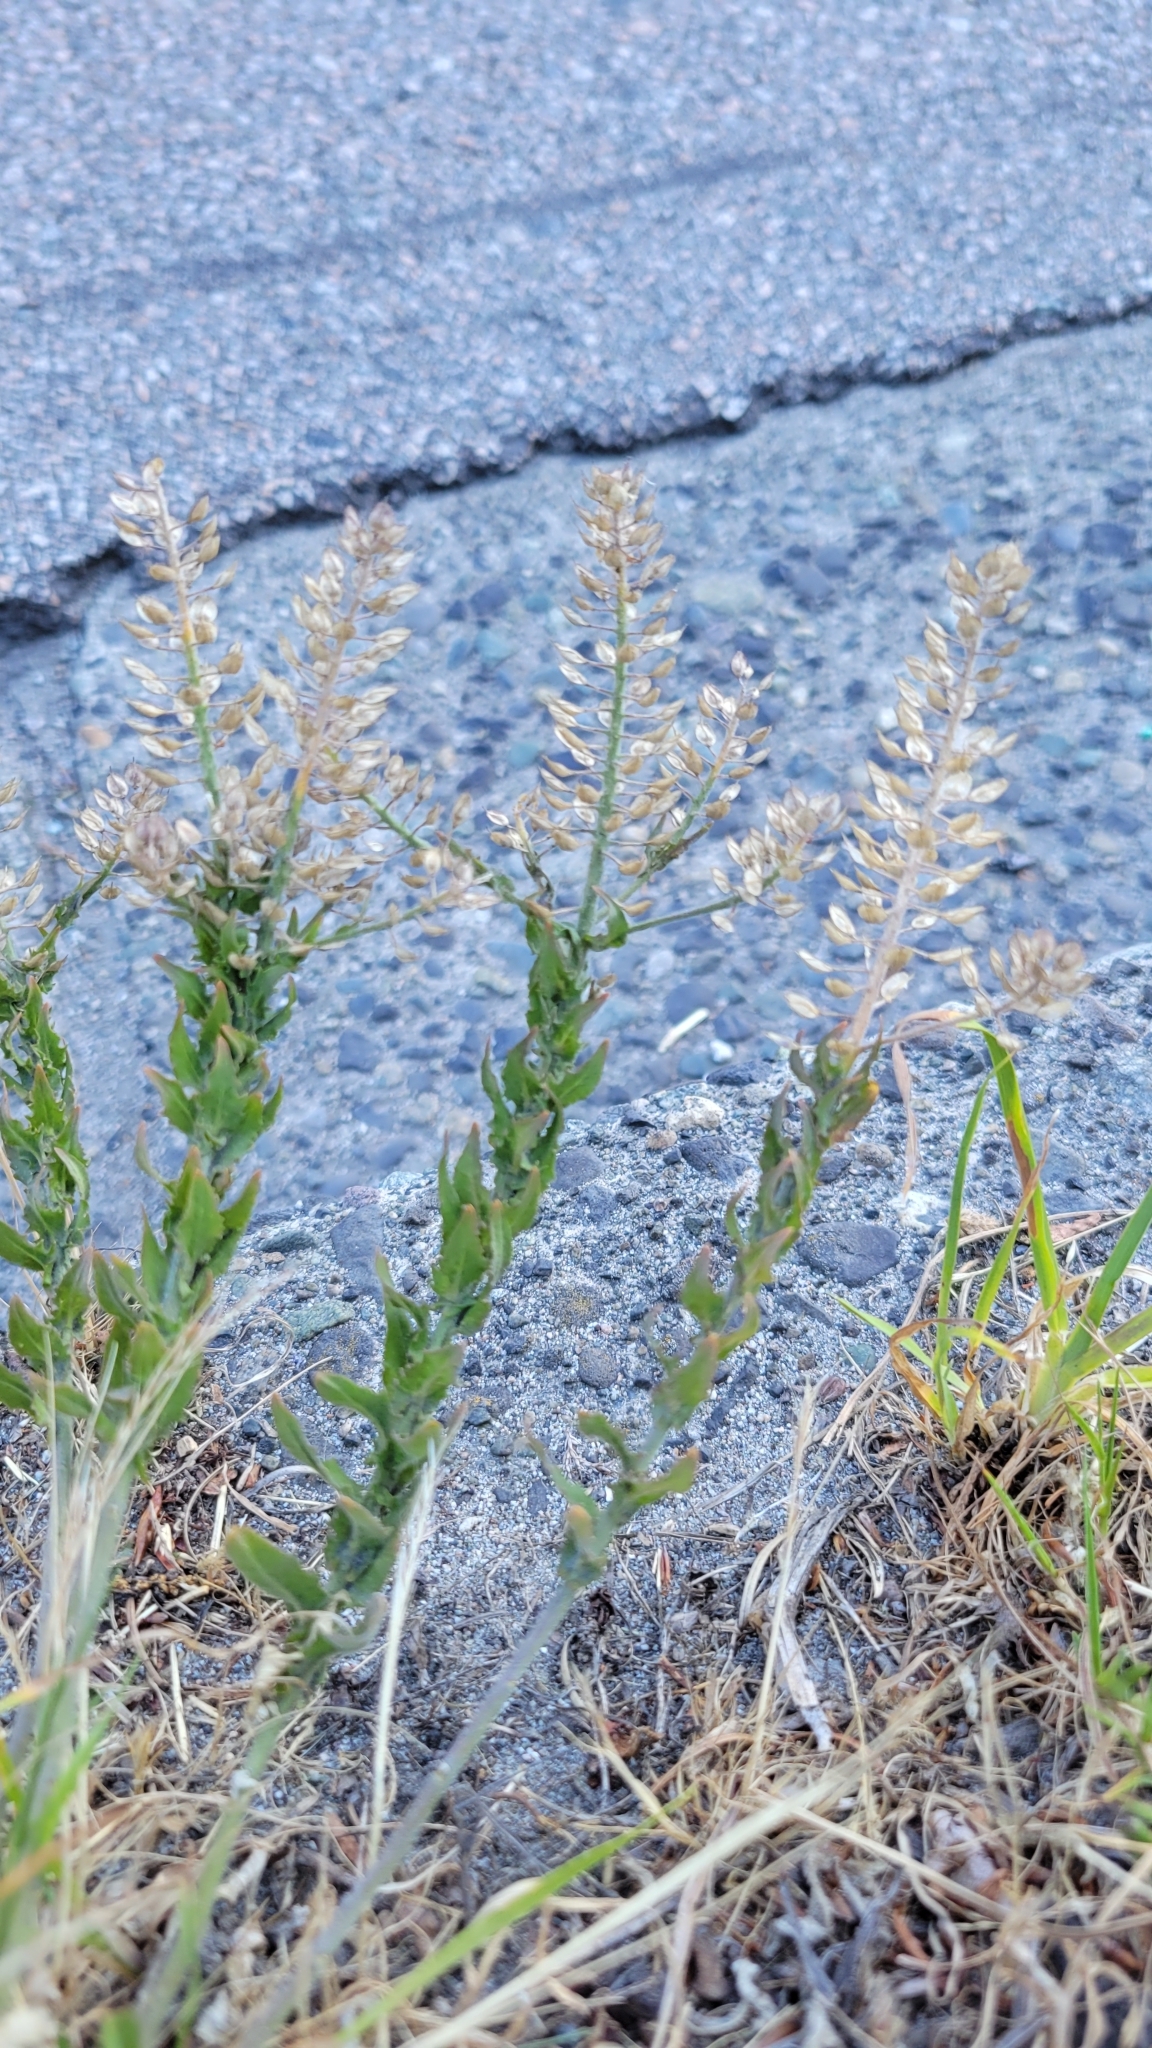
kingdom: Plantae
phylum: Tracheophyta
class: Magnoliopsida
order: Brassicales
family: Brassicaceae
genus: Lepidium
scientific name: Lepidium heterophyllum
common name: Smith's pepperwort
